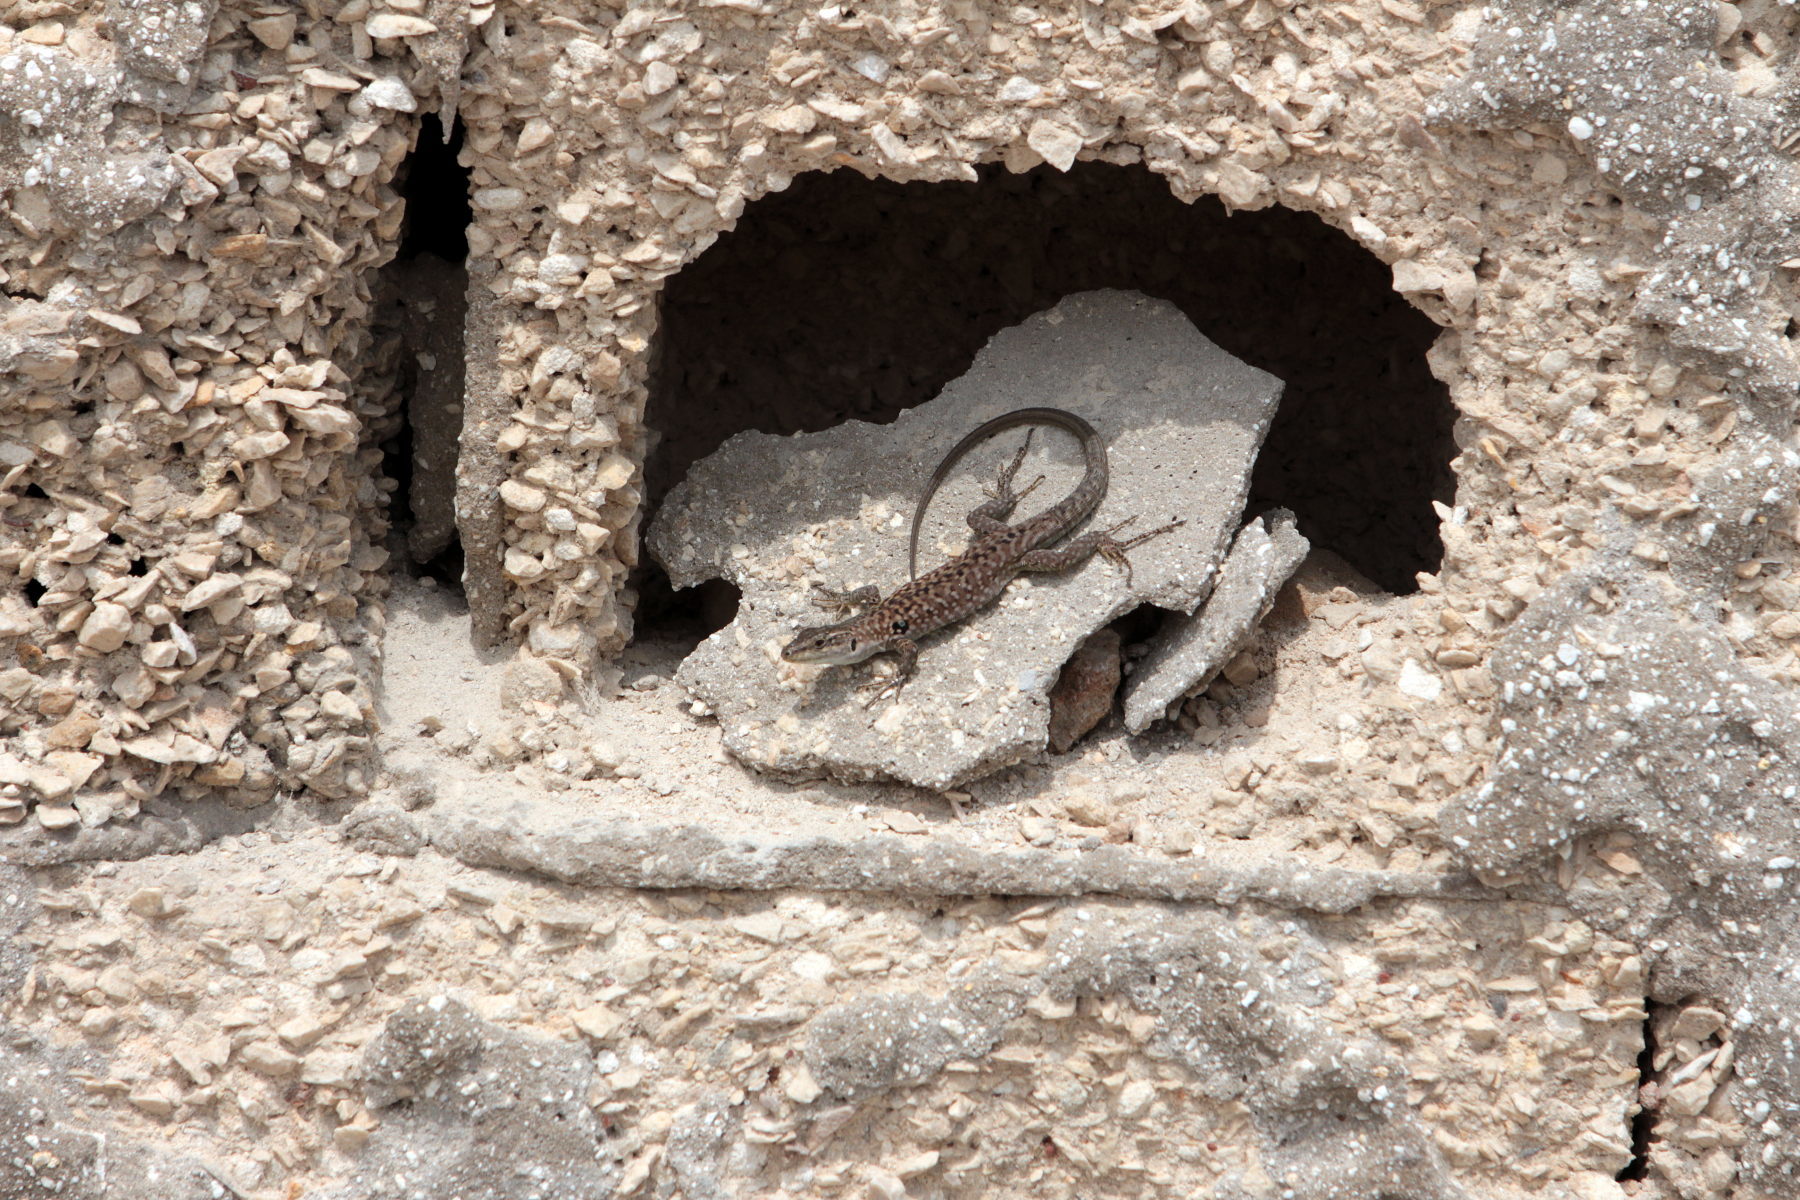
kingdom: Animalia
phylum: Chordata
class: Squamata
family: Lacertidae
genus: Podarcis
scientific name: Podarcis siculus
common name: Italian wall lizard
